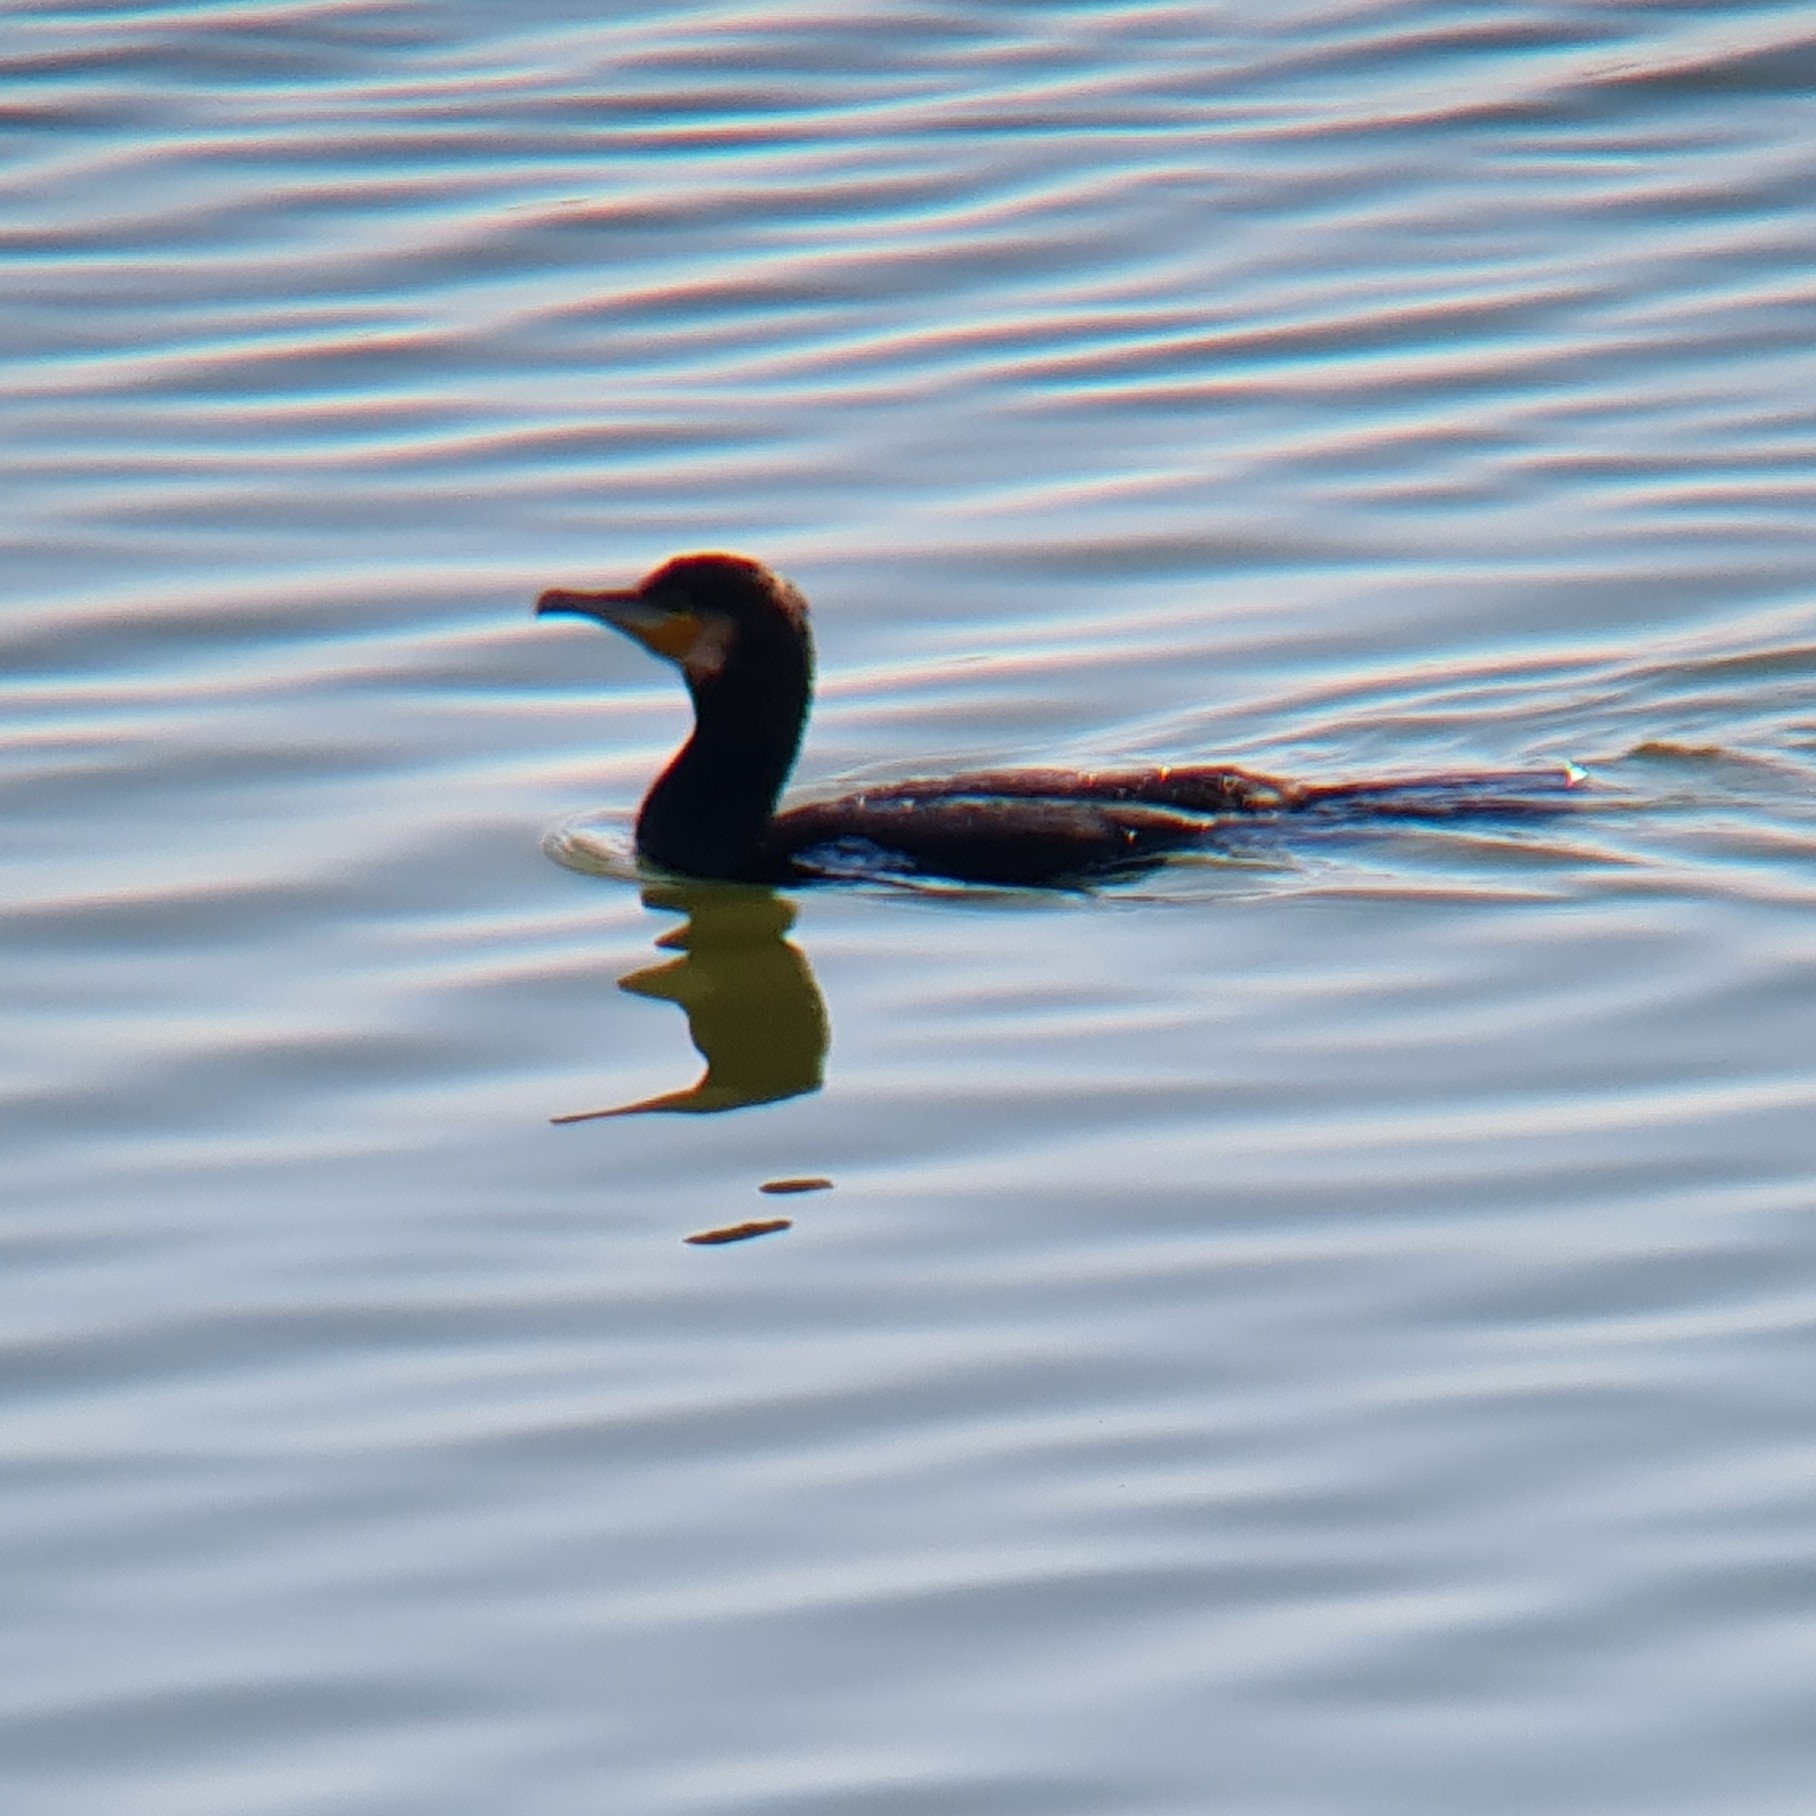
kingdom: Animalia
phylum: Chordata
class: Aves
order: Suliformes
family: Phalacrocoracidae
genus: Phalacrocorax
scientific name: Phalacrocorax carbo
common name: Great cormorant
